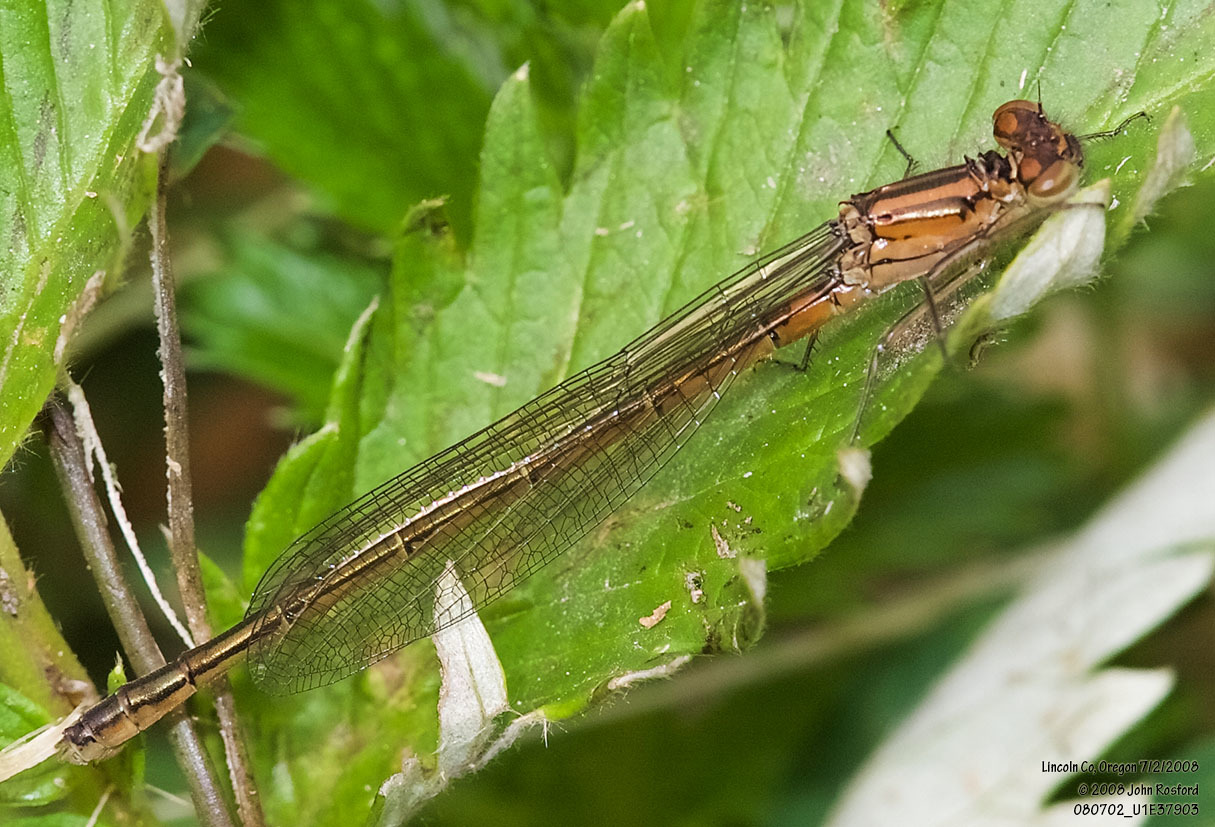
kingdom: Animalia
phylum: Arthropoda
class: Insecta
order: Odonata
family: Coenagrionidae
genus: Ischnura
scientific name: Ischnura erratica
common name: Swift forktail
